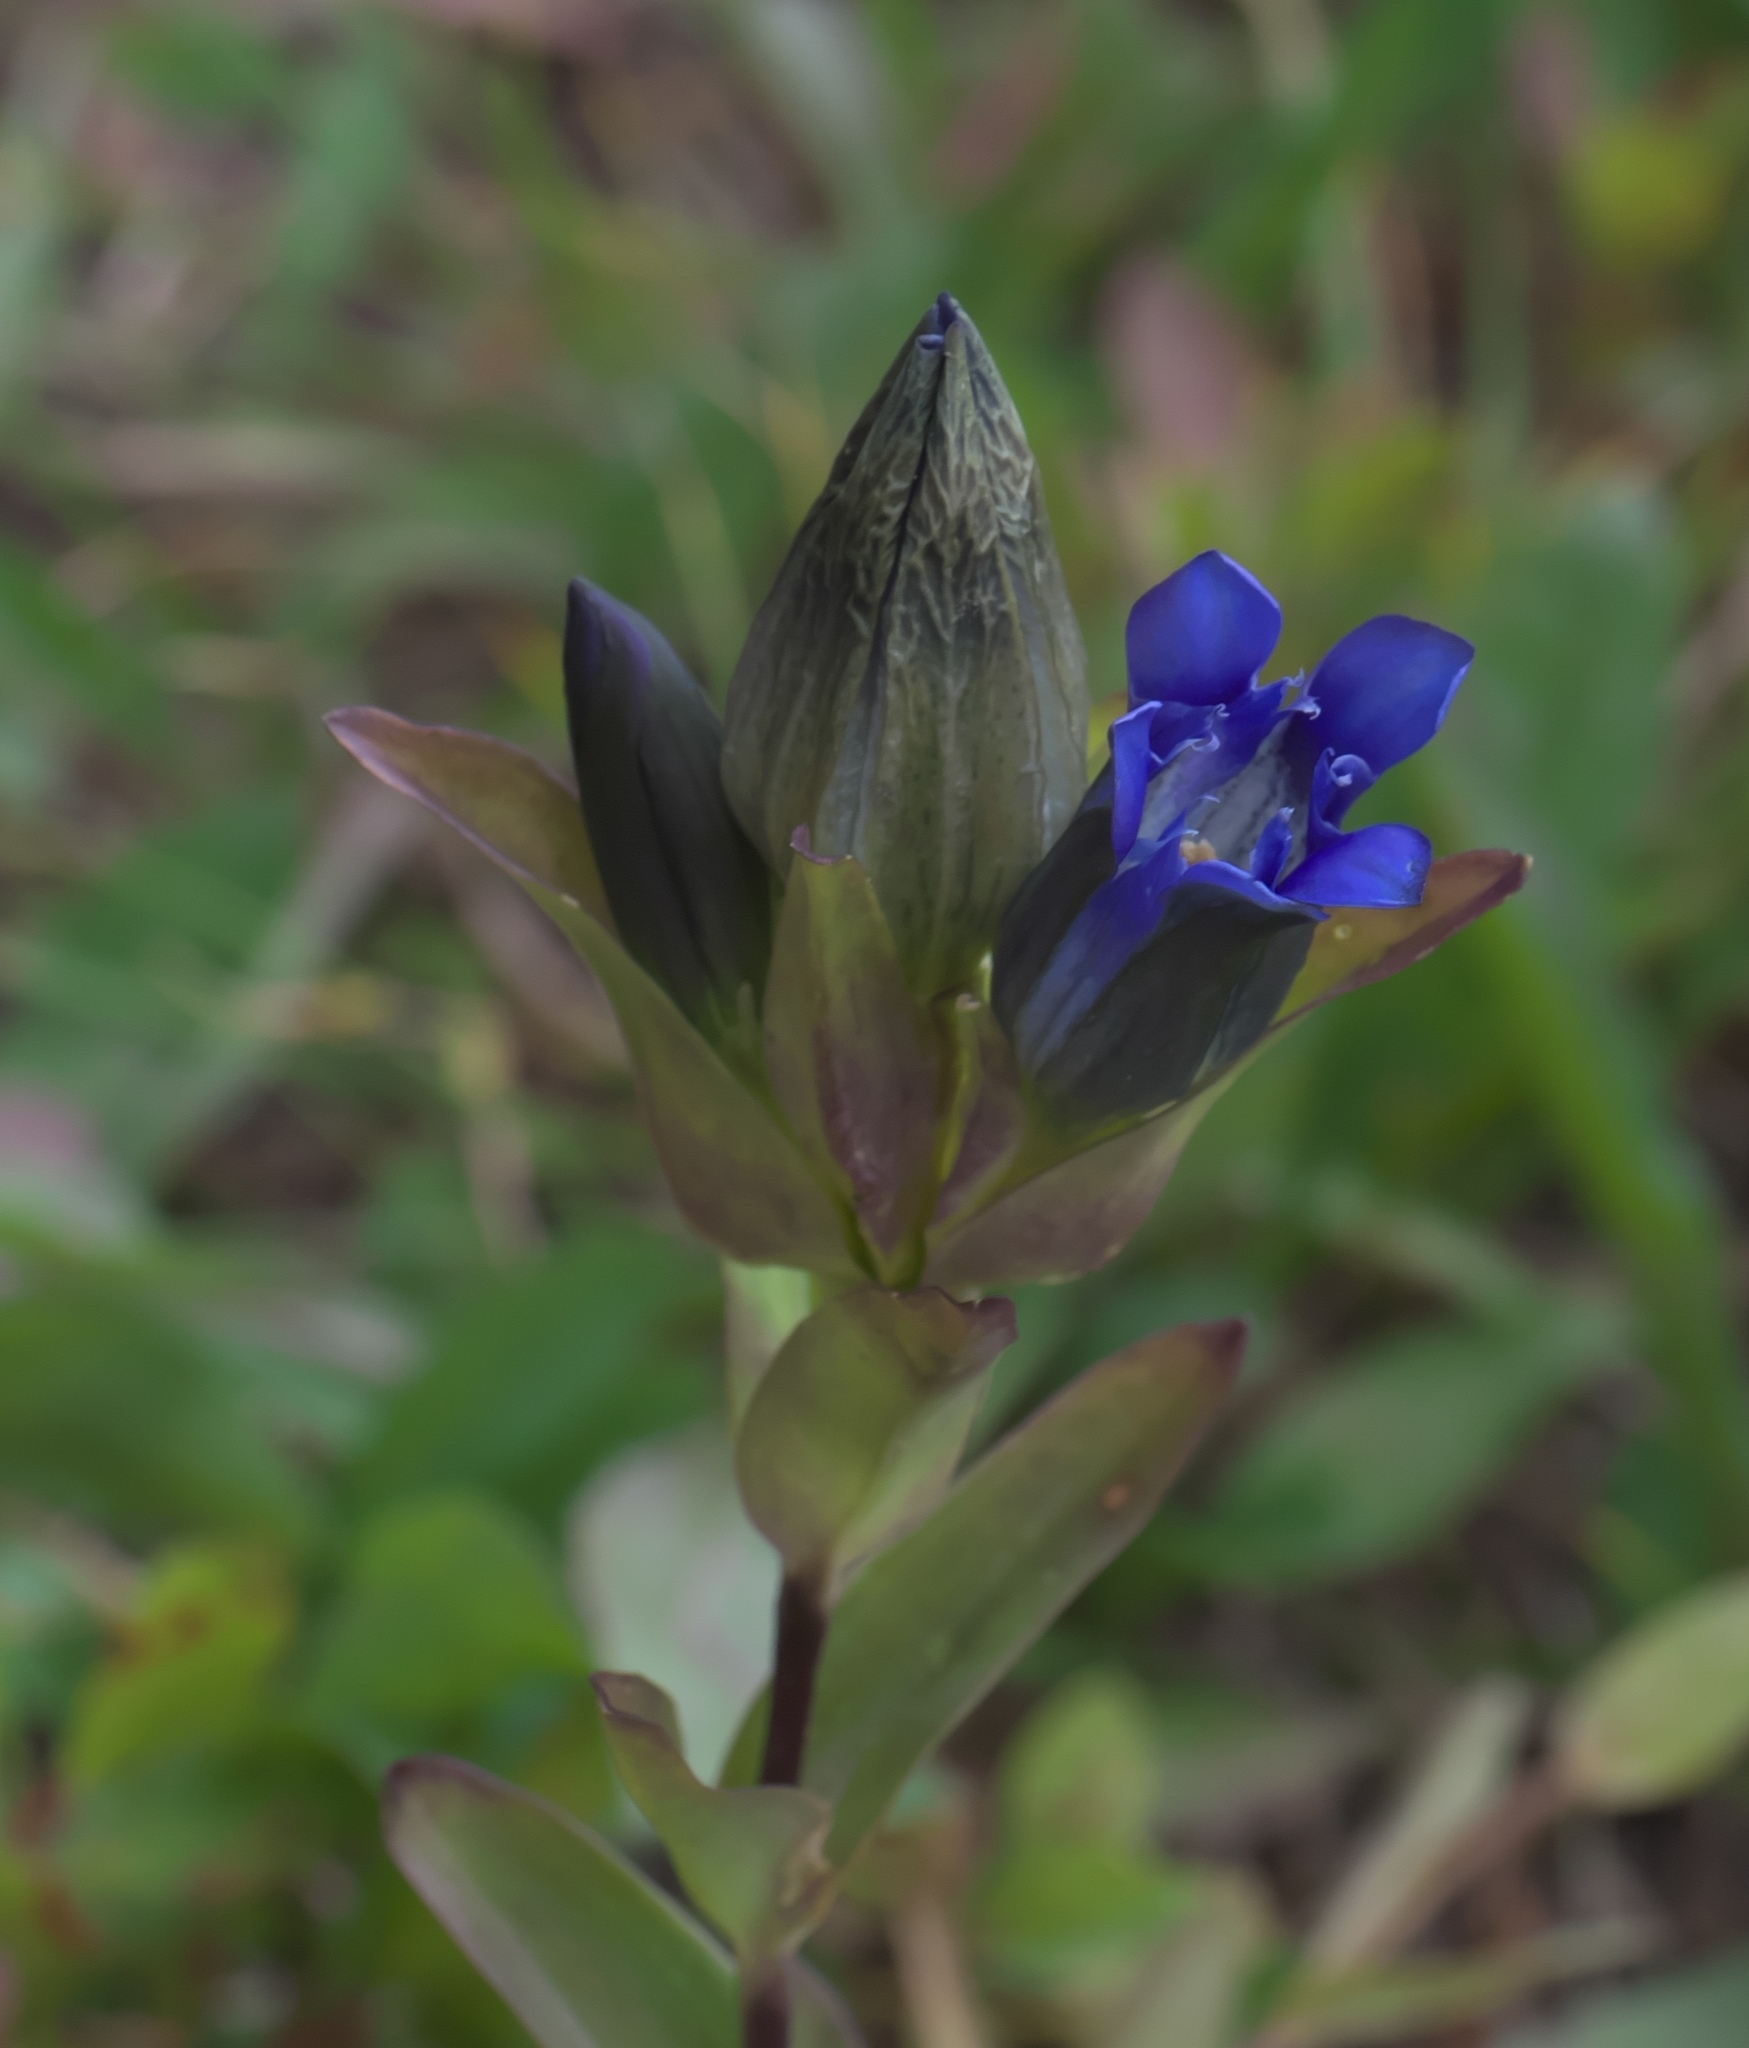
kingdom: Plantae
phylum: Tracheophyta
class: Magnoliopsida
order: Gentianales
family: Gentianaceae
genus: Gentiana
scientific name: Gentiana parryi
